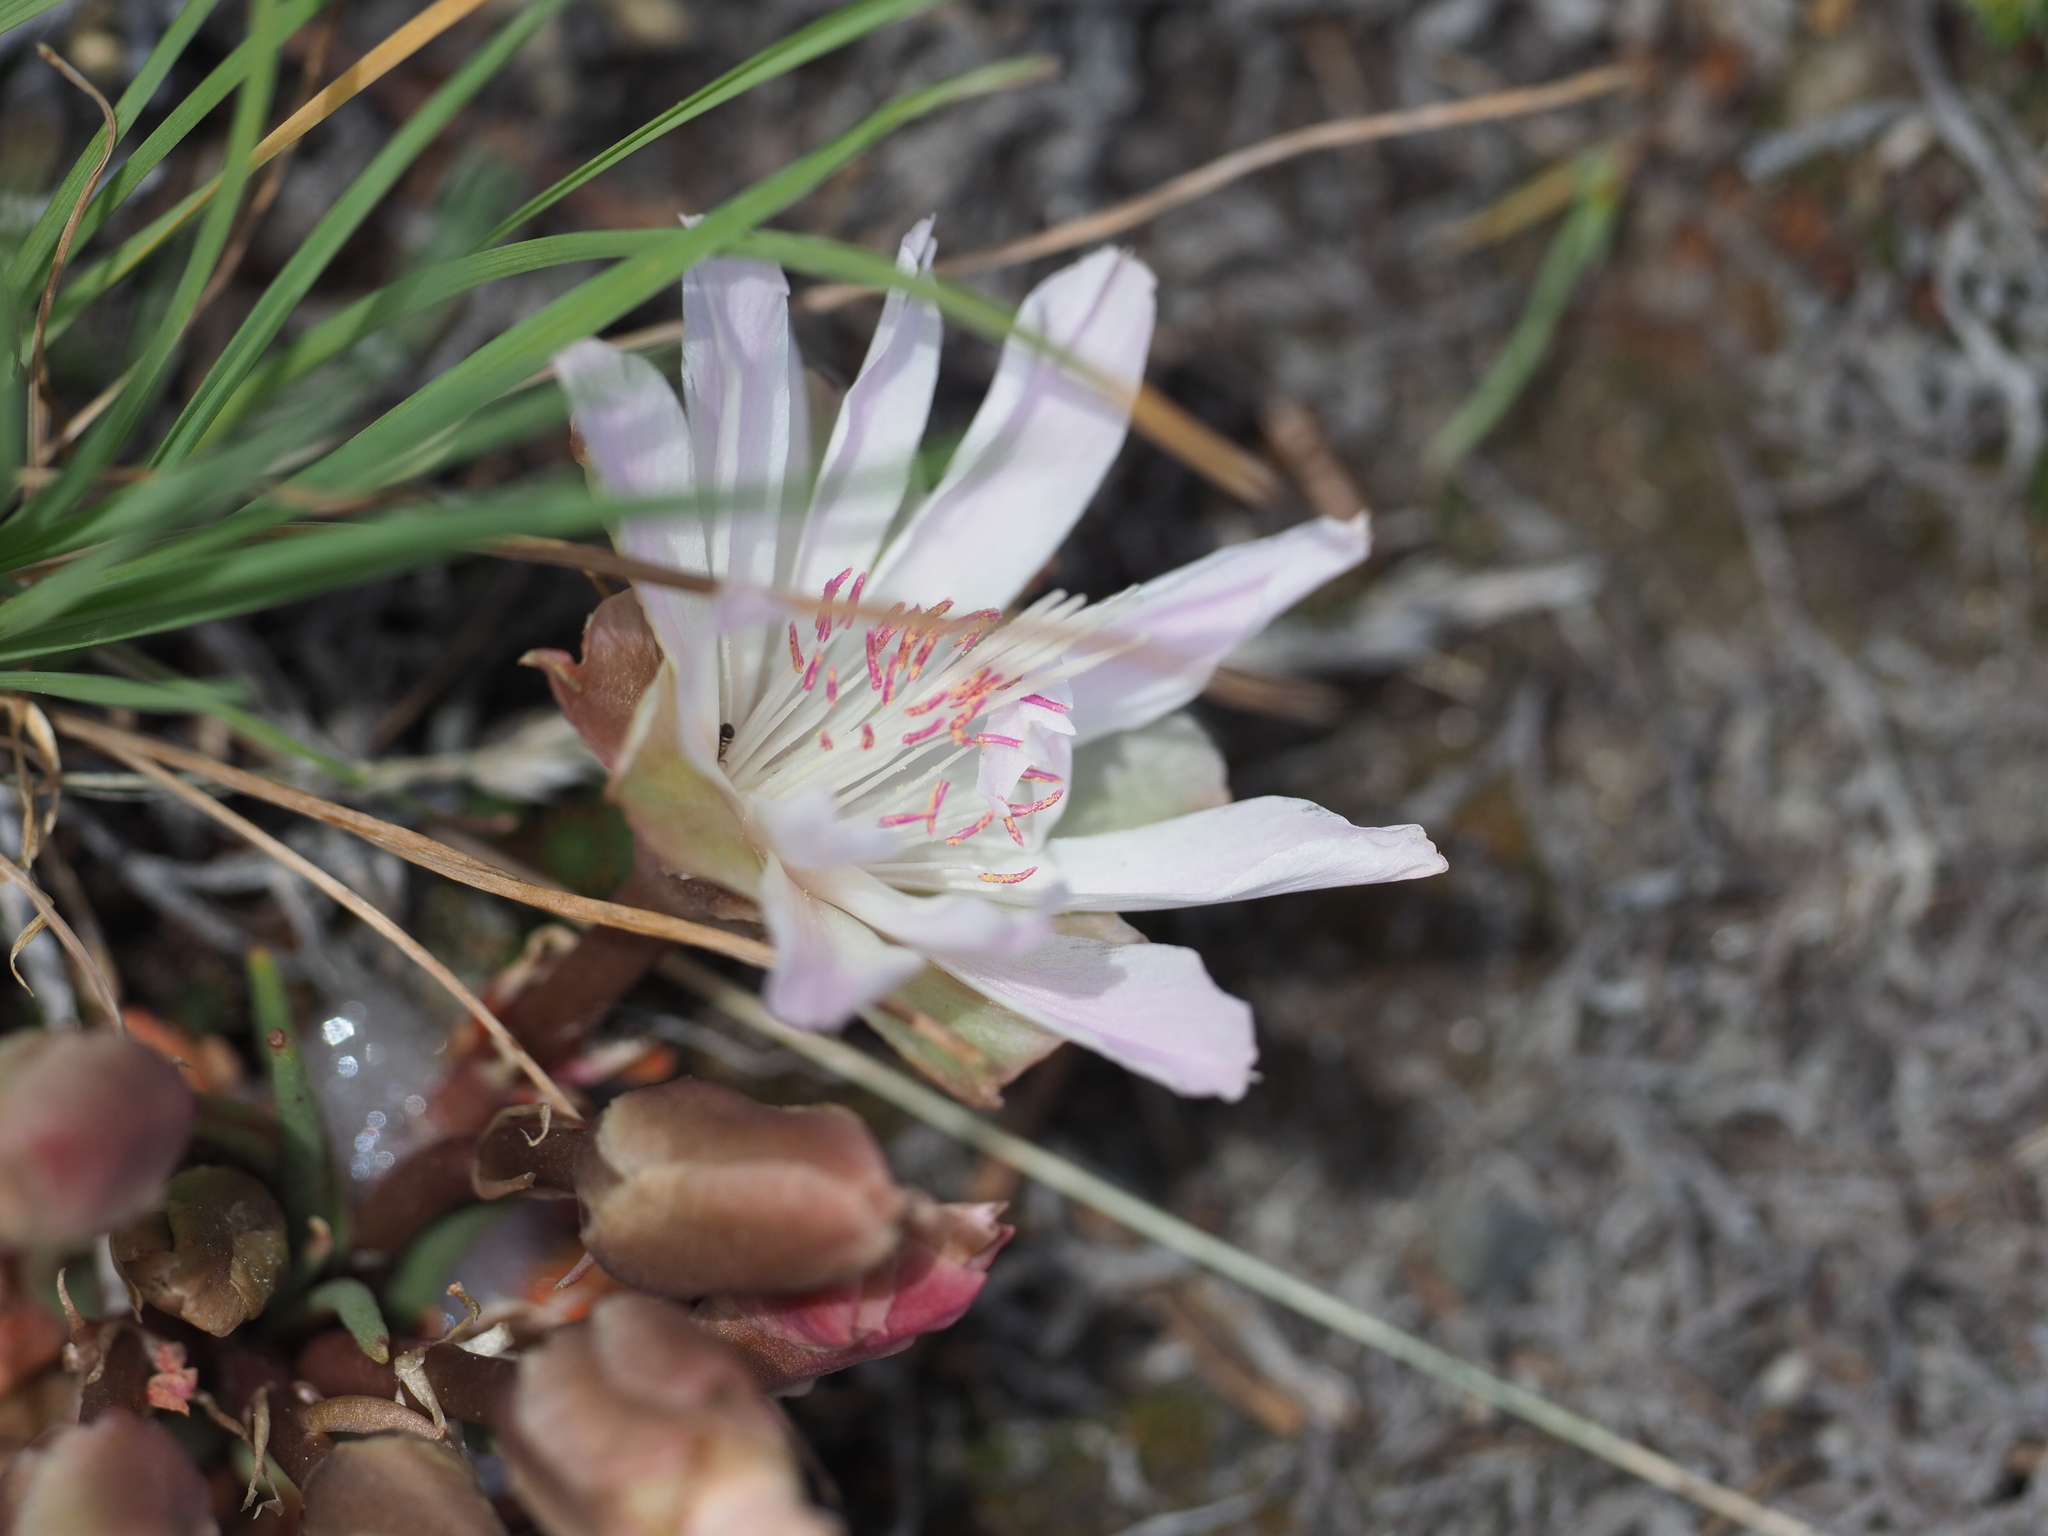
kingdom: Plantae
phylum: Tracheophyta
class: Magnoliopsida
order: Caryophyllales
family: Montiaceae
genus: Lewisia
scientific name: Lewisia rediviva
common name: Bitter-root
